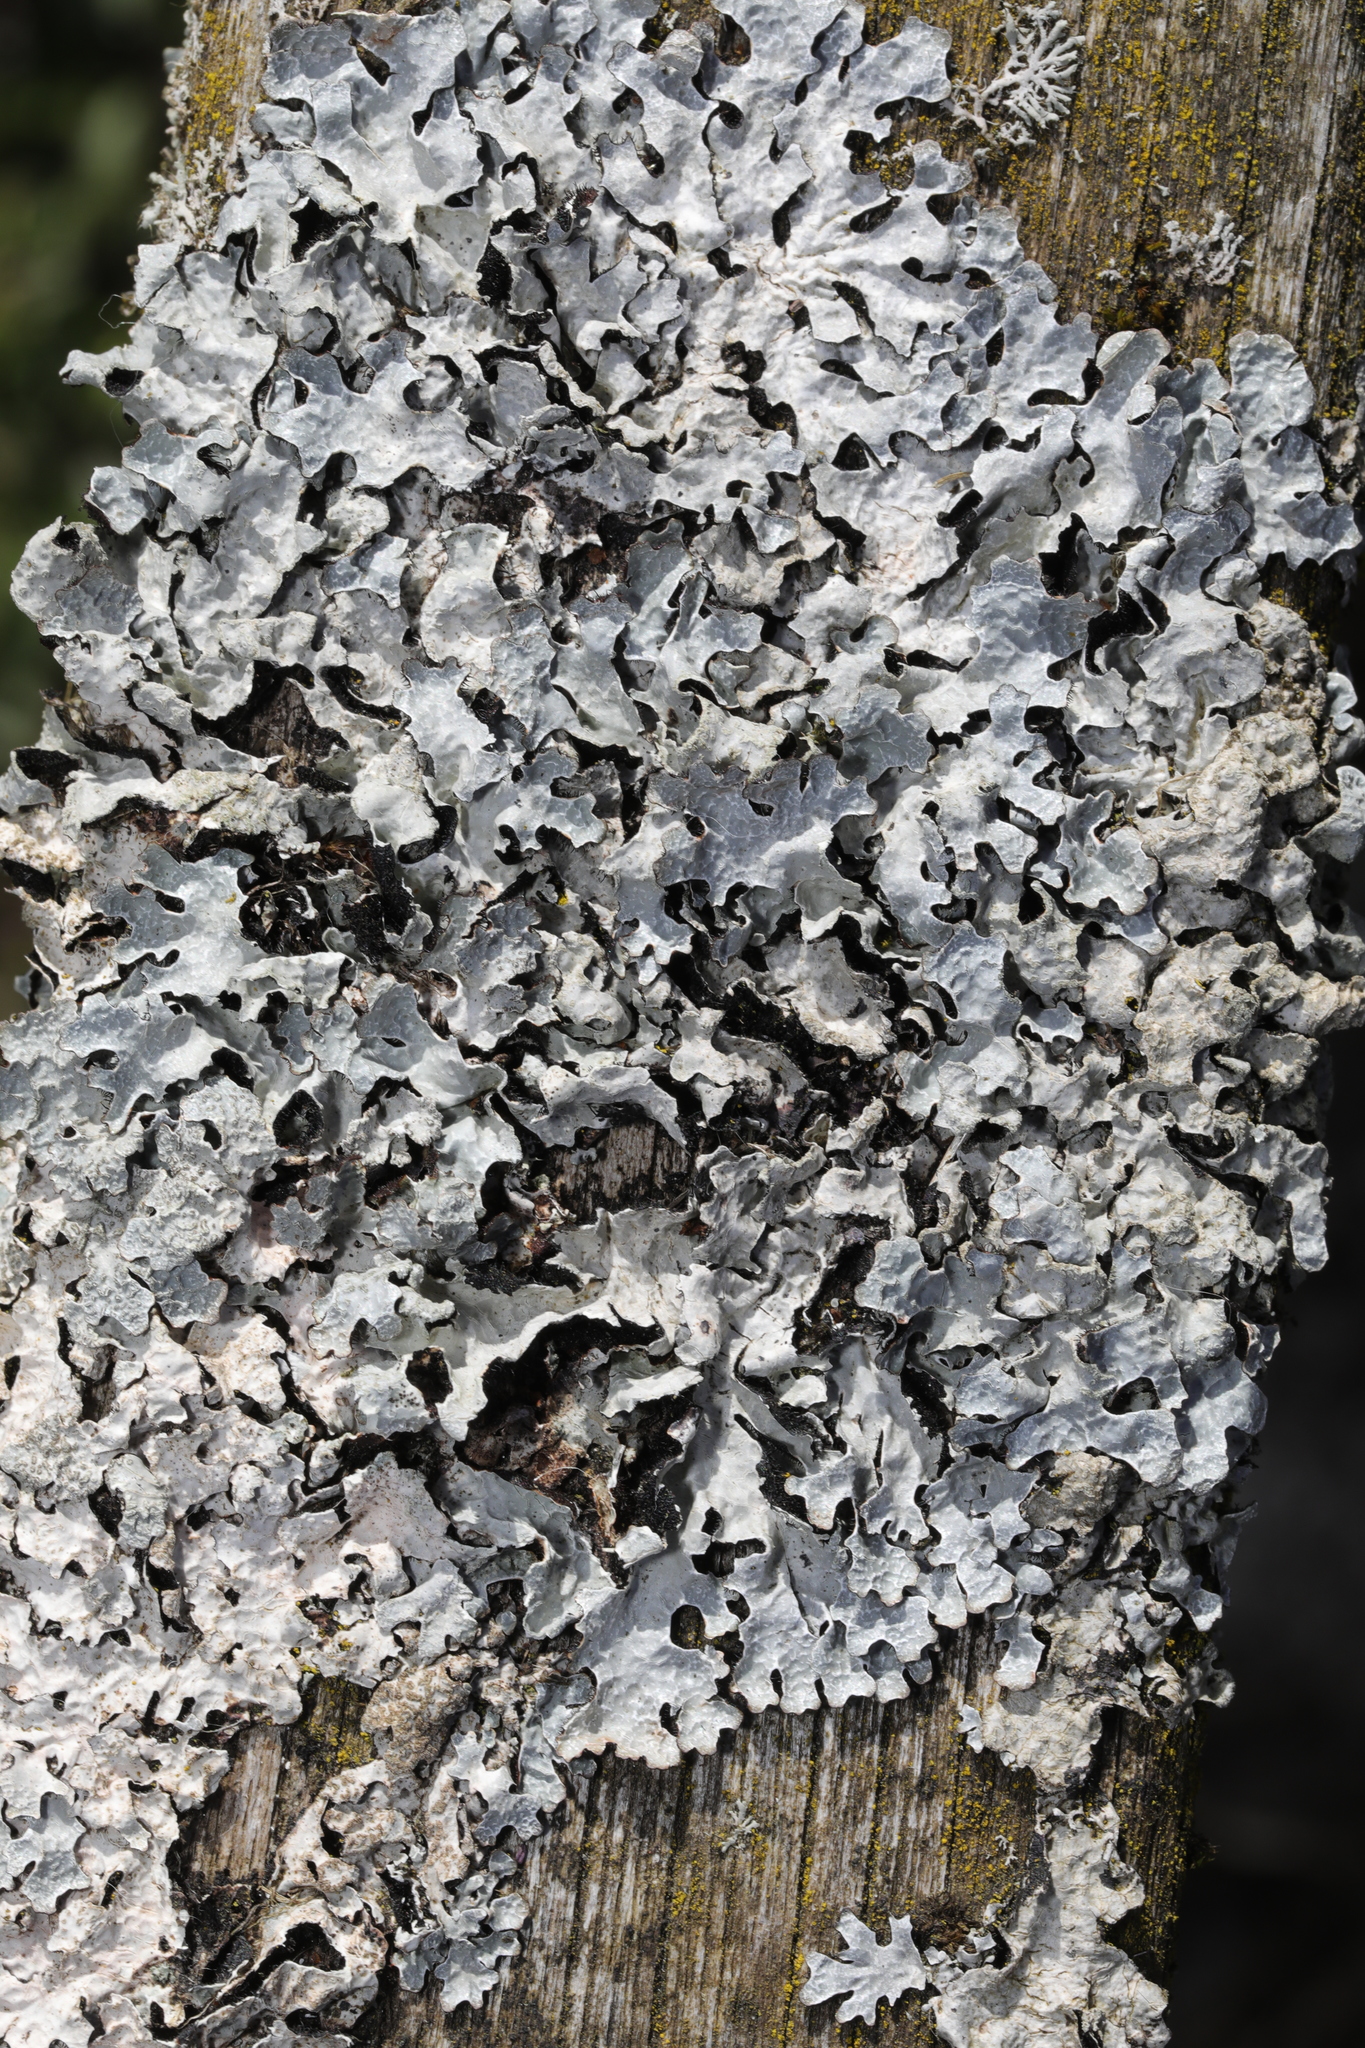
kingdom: Fungi
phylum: Ascomycota
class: Lecanoromycetes
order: Lecanorales
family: Parmeliaceae
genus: Parmelia
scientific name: Parmelia sulcata
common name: Netted shield lichen
